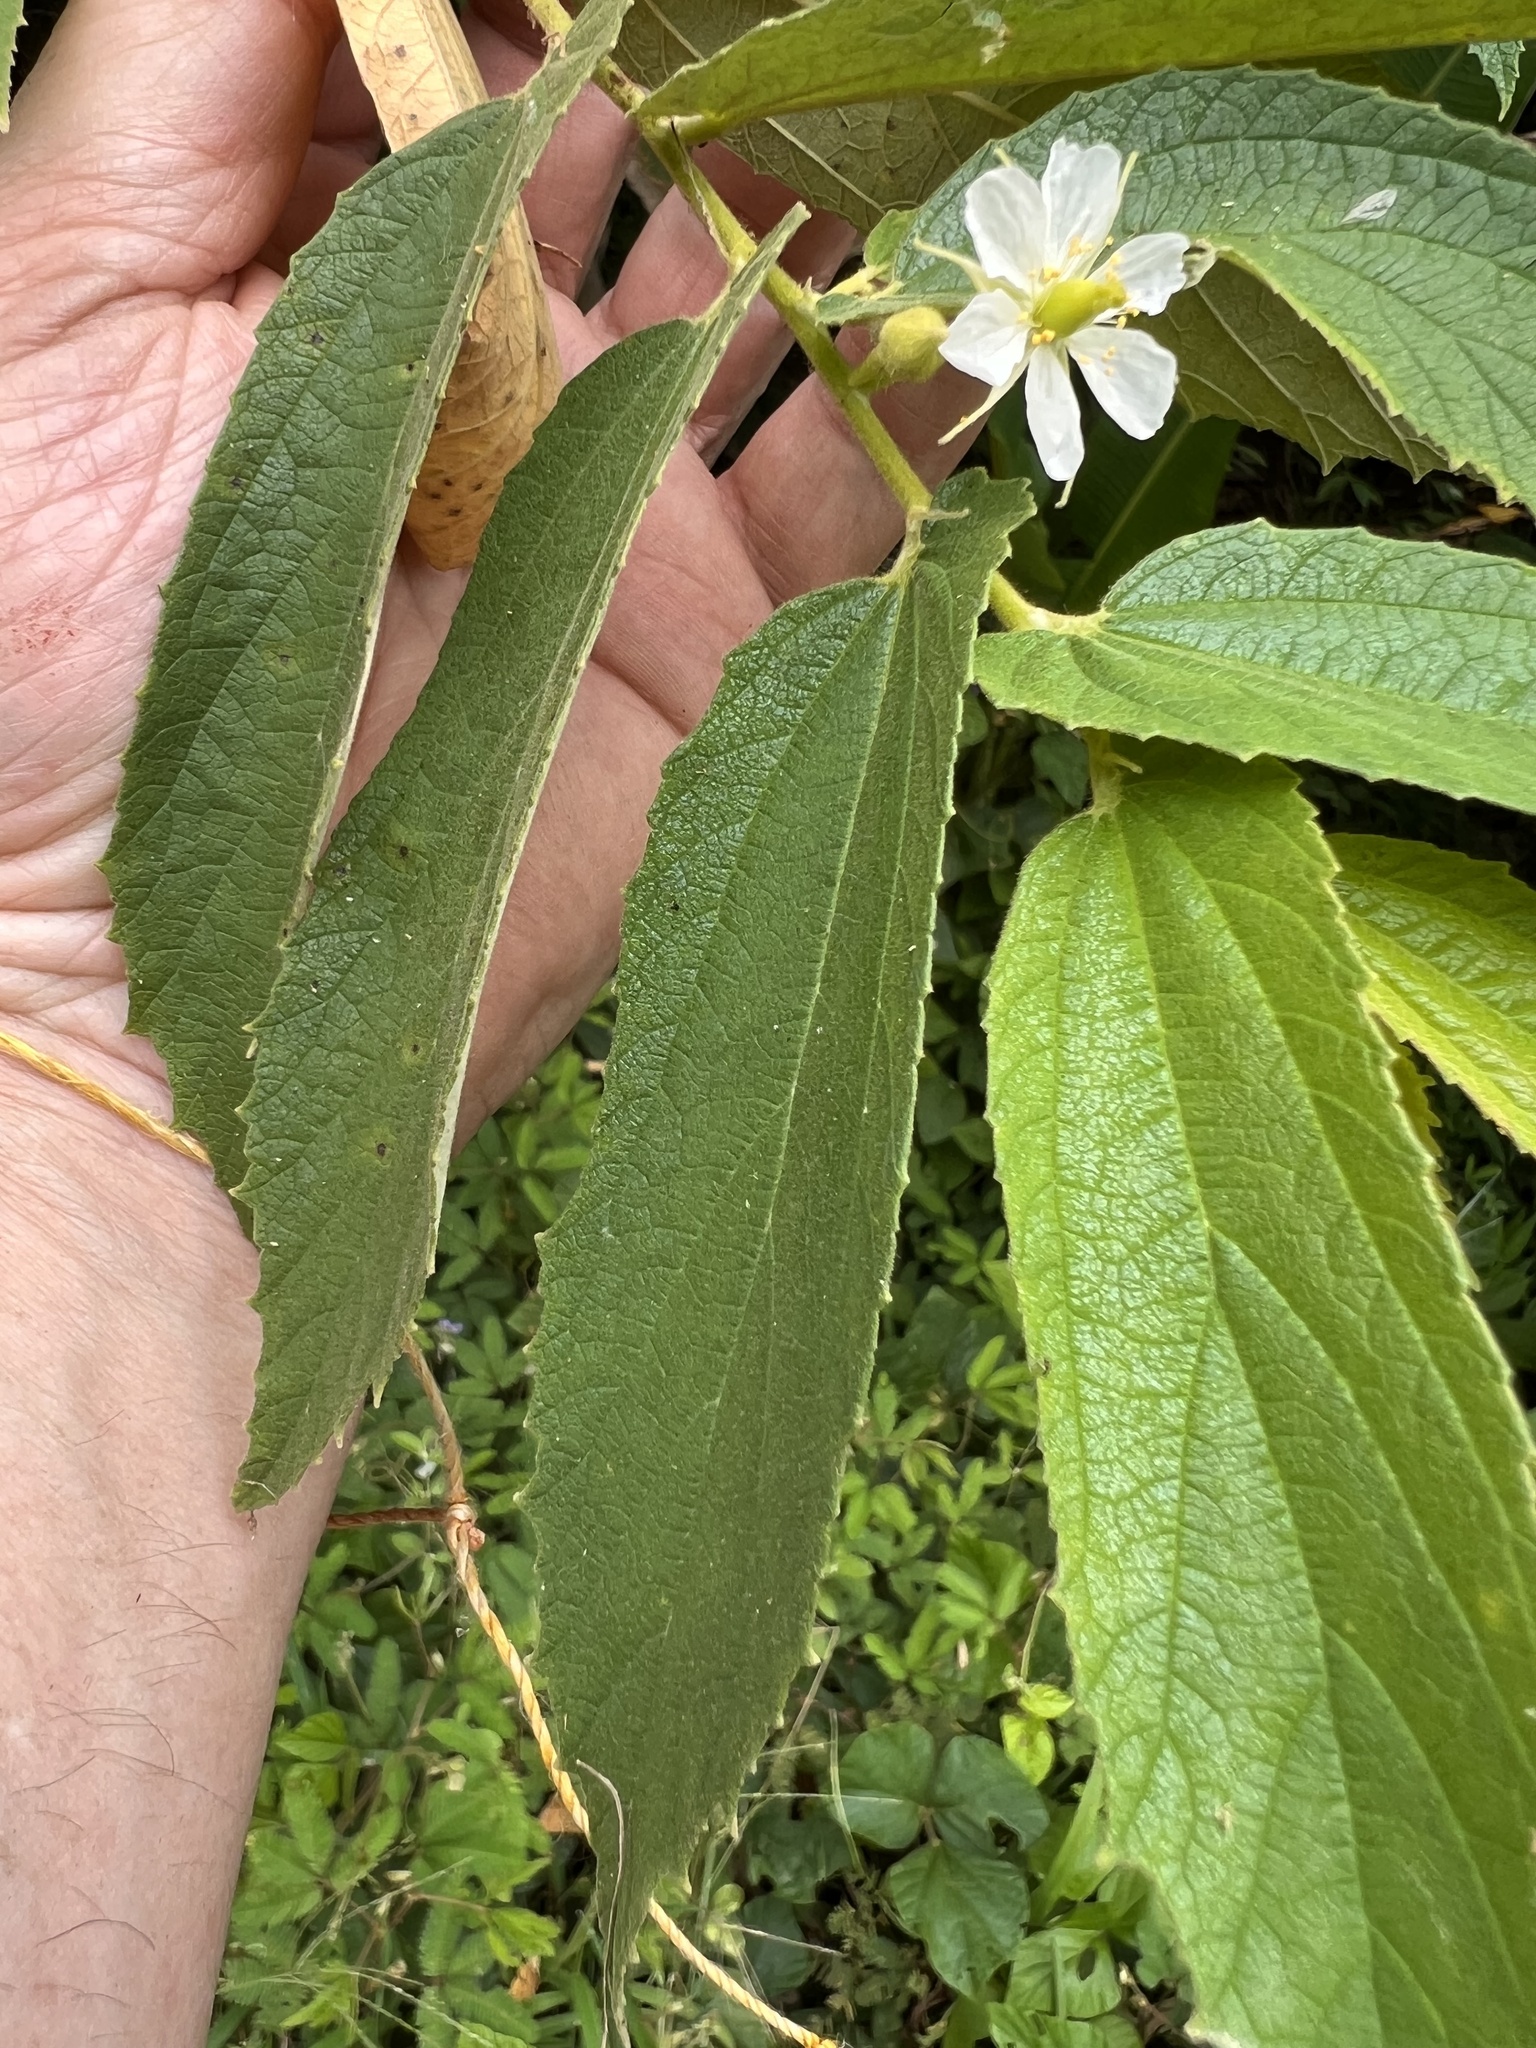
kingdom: Plantae
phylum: Tracheophyta
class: Magnoliopsida
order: Malvales
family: Muntingiaceae
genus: Muntingia
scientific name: Muntingia calabura
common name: Strawberrytree
